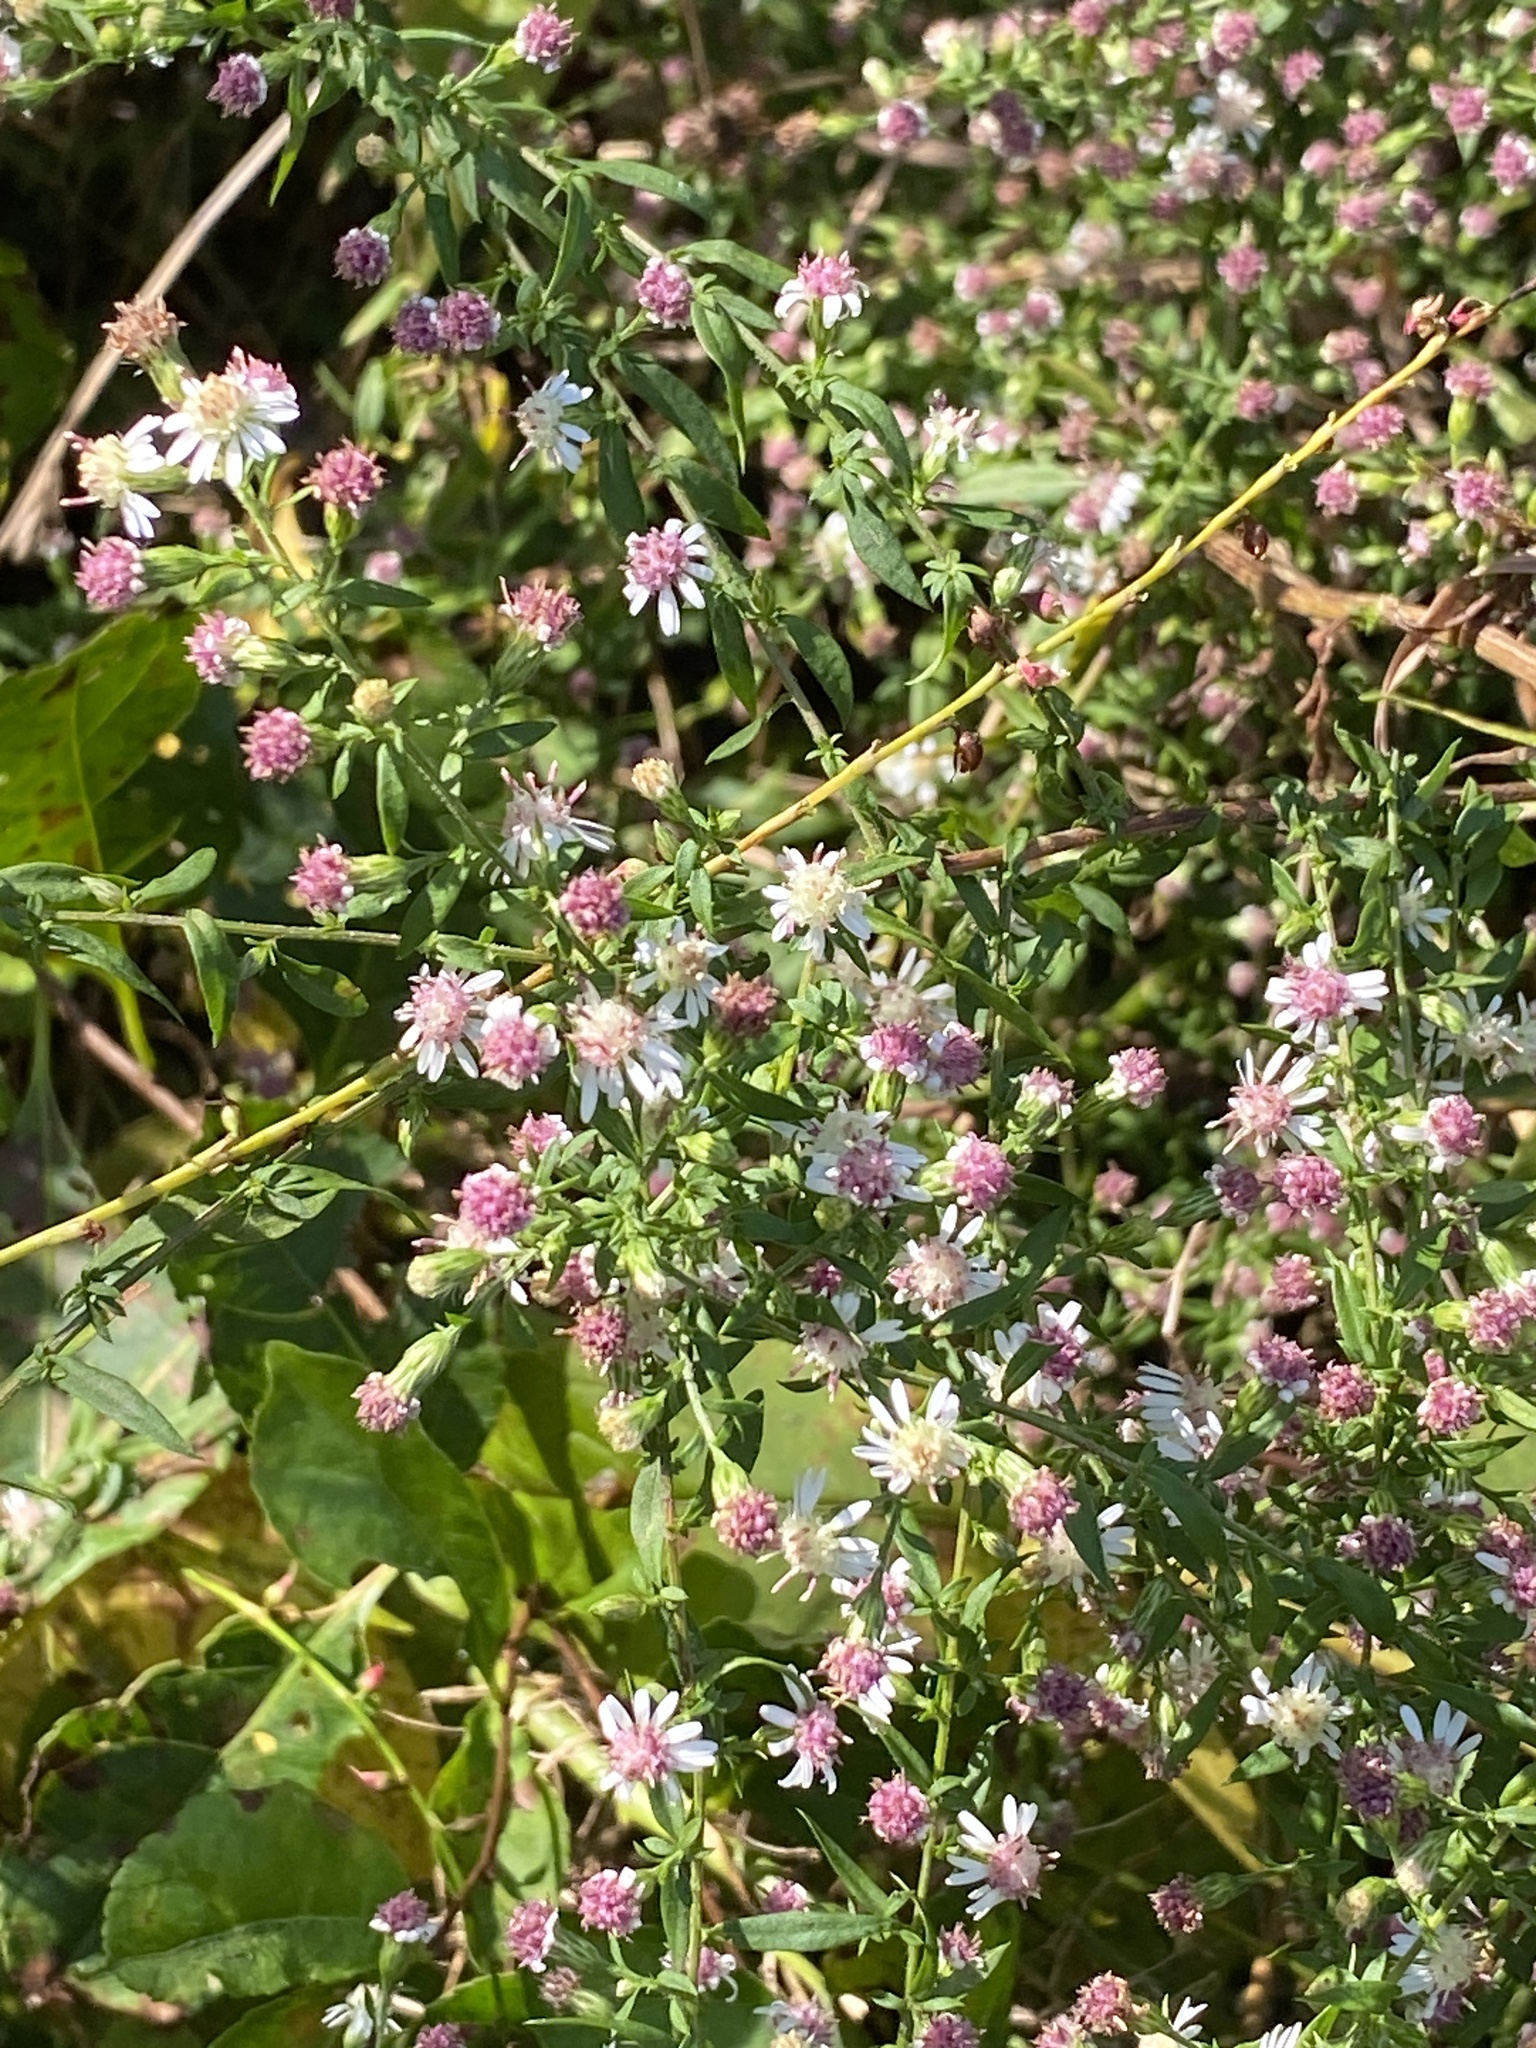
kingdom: Plantae
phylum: Tracheophyta
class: Magnoliopsida
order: Asterales
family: Asteraceae
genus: Symphyotrichum
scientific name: Symphyotrichum lateriflorum
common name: Calico aster
